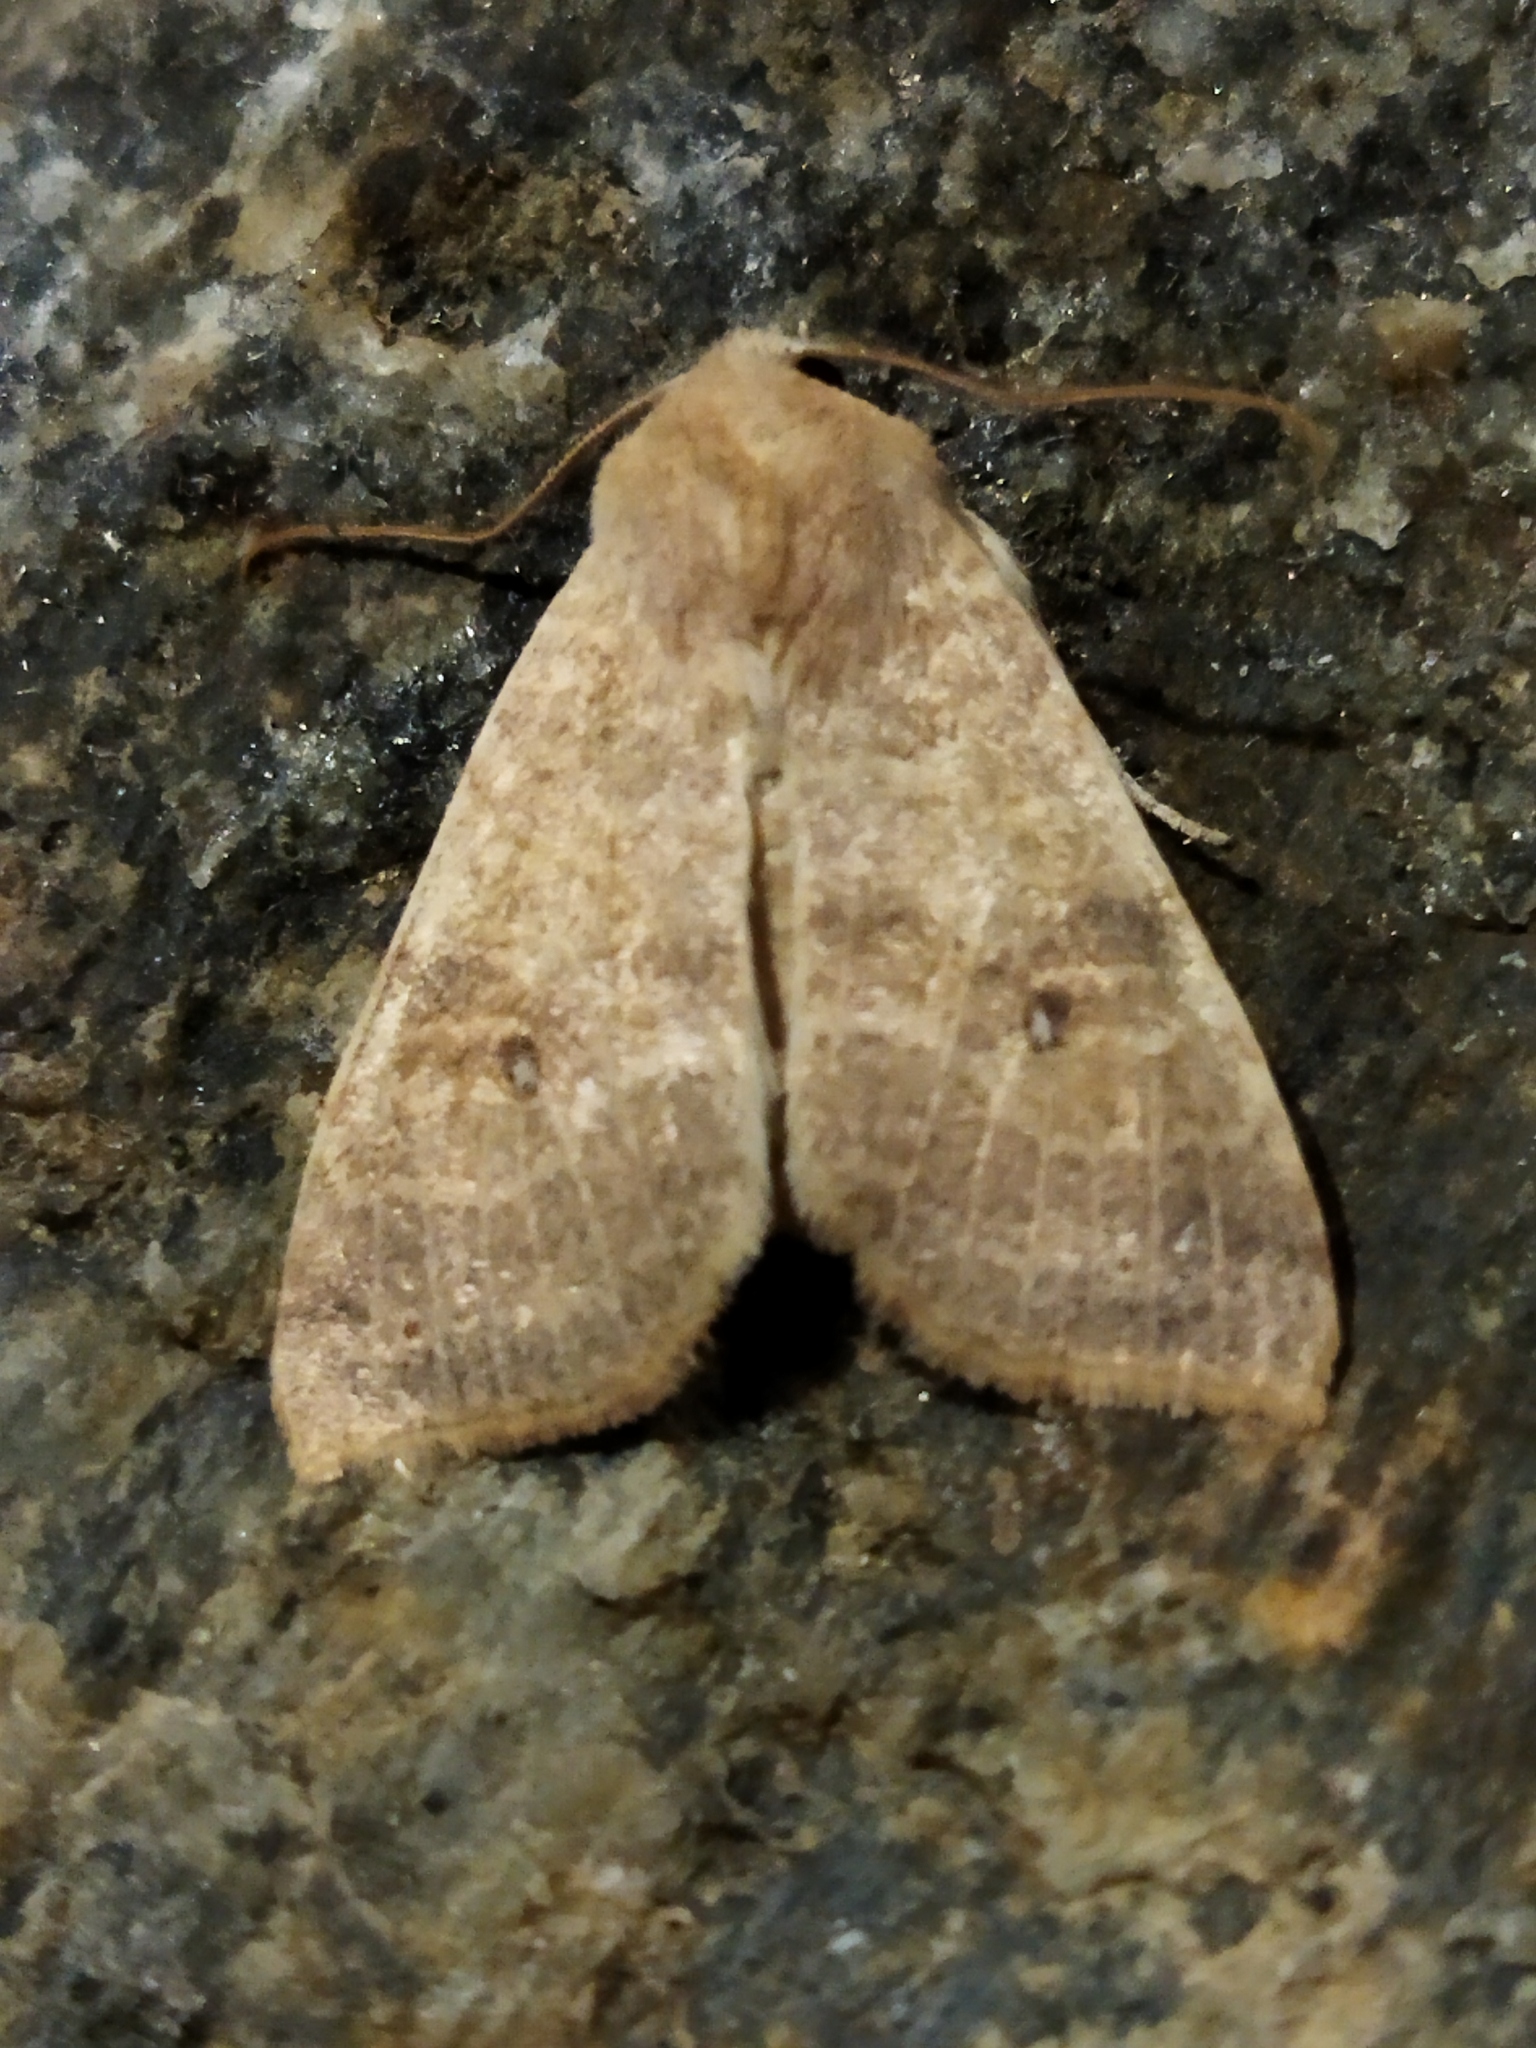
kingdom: Animalia
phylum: Arthropoda
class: Insecta
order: Lepidoptera
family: Noctuidae
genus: Xanthia
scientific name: Xanthia ocellaris
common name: Pale-lemon sallow
